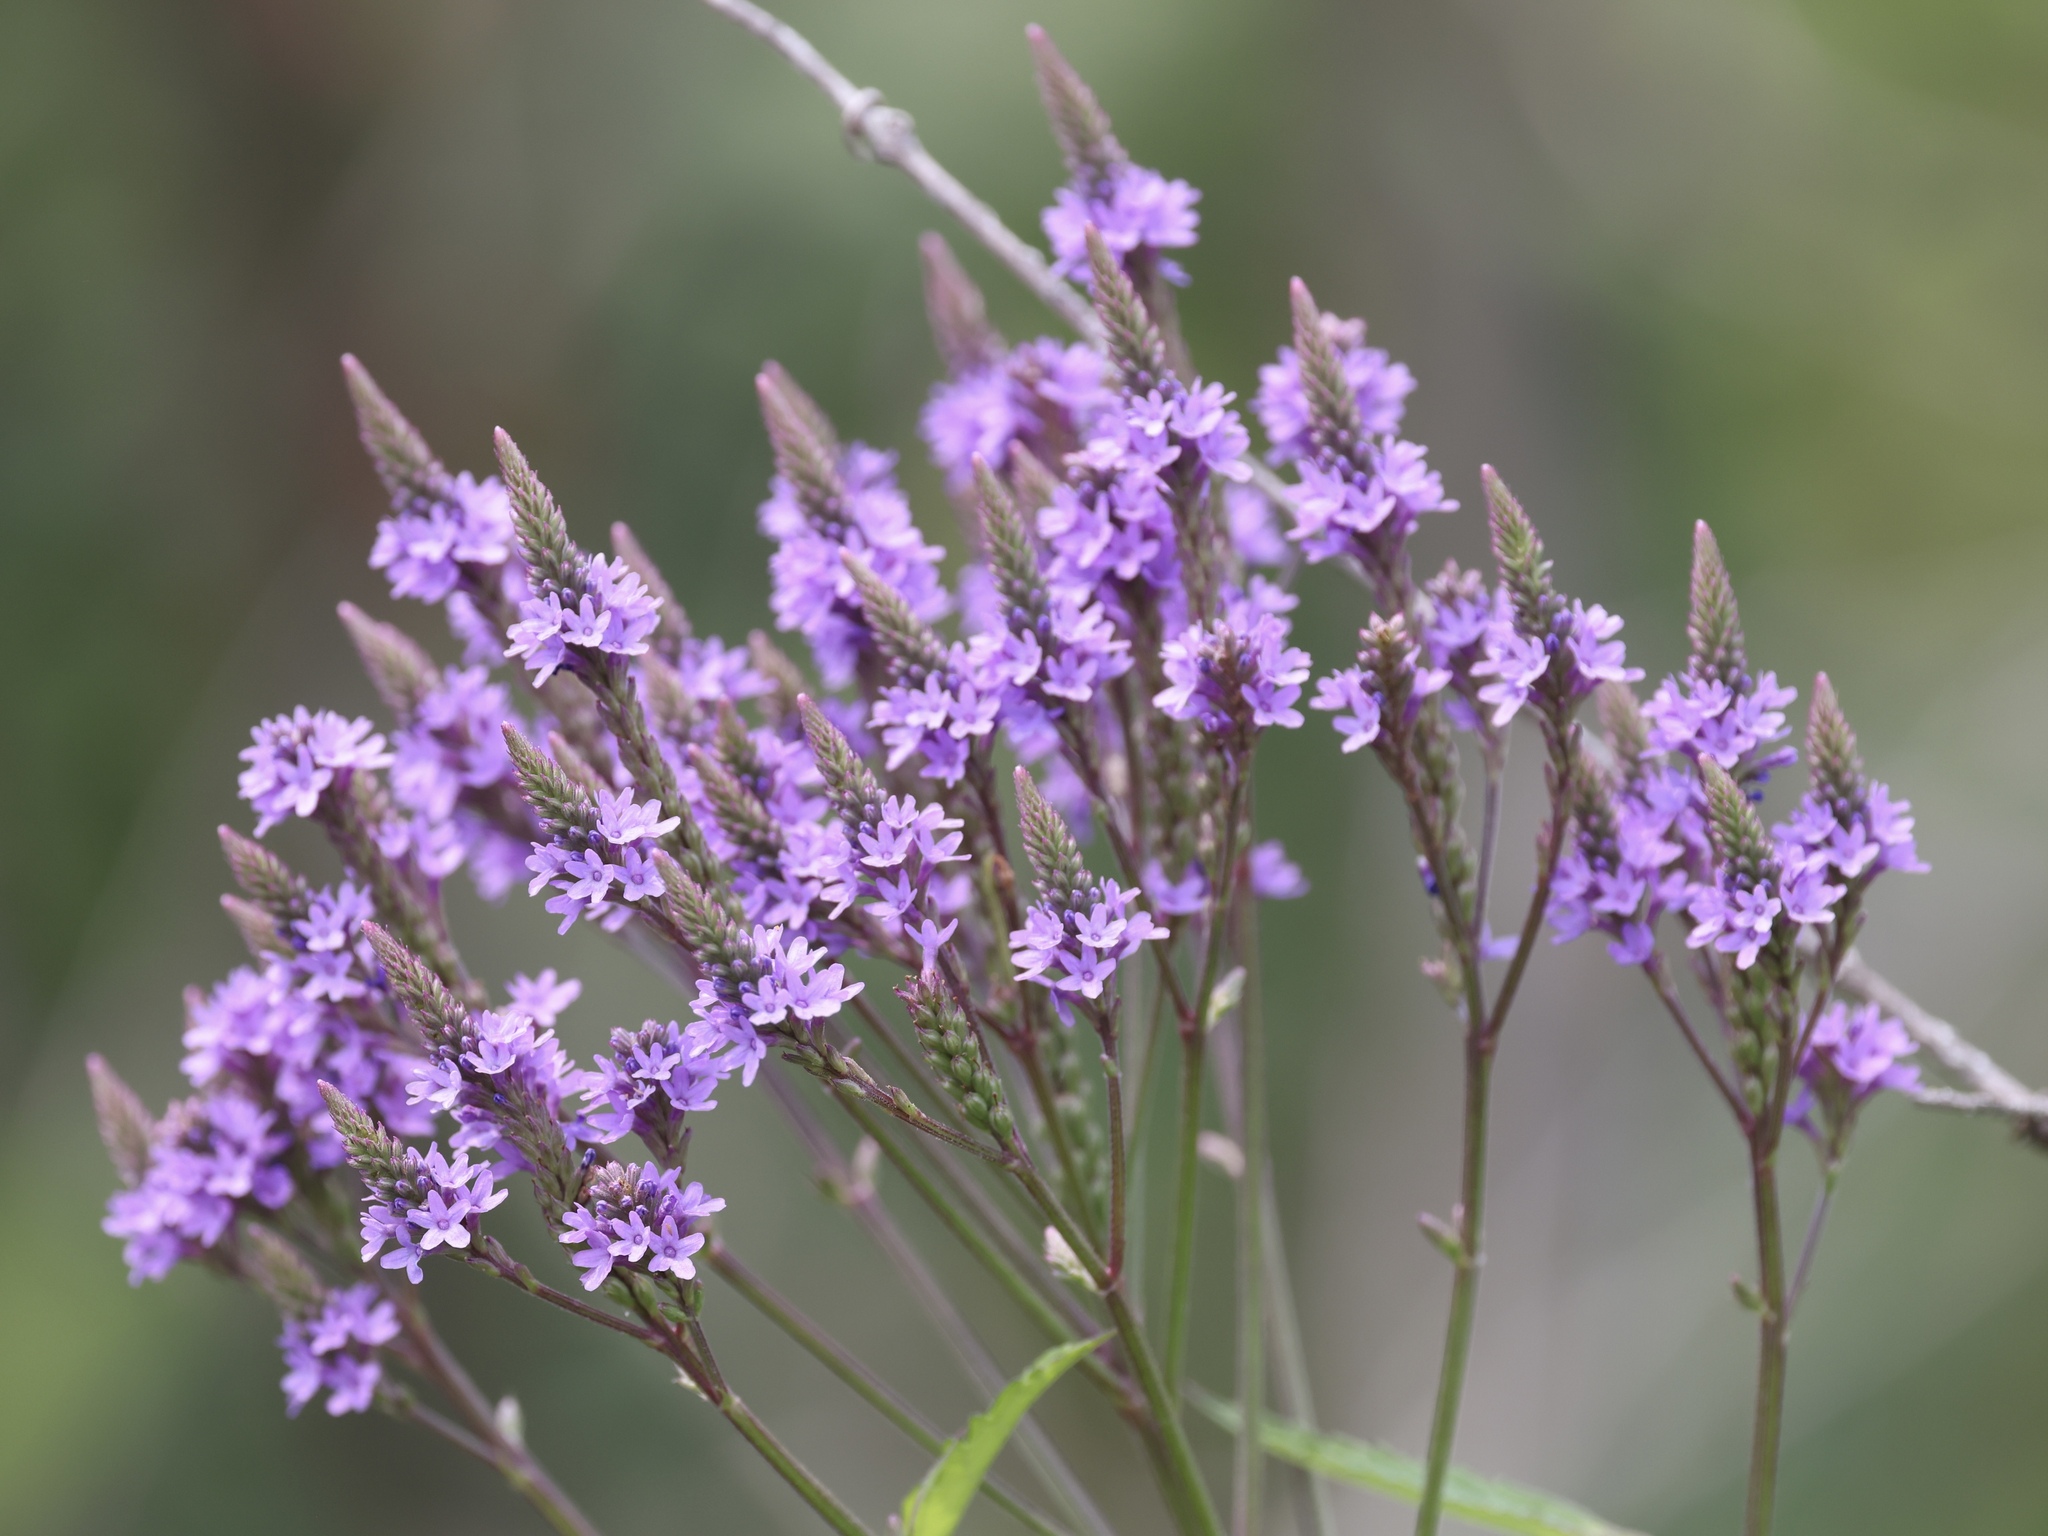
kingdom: Plantae
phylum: Tracheophyta
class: Magnoliopsida
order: Lamiales
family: Verbenaceae
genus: Verbena
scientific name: Verbena hastata
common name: American blue vervain
